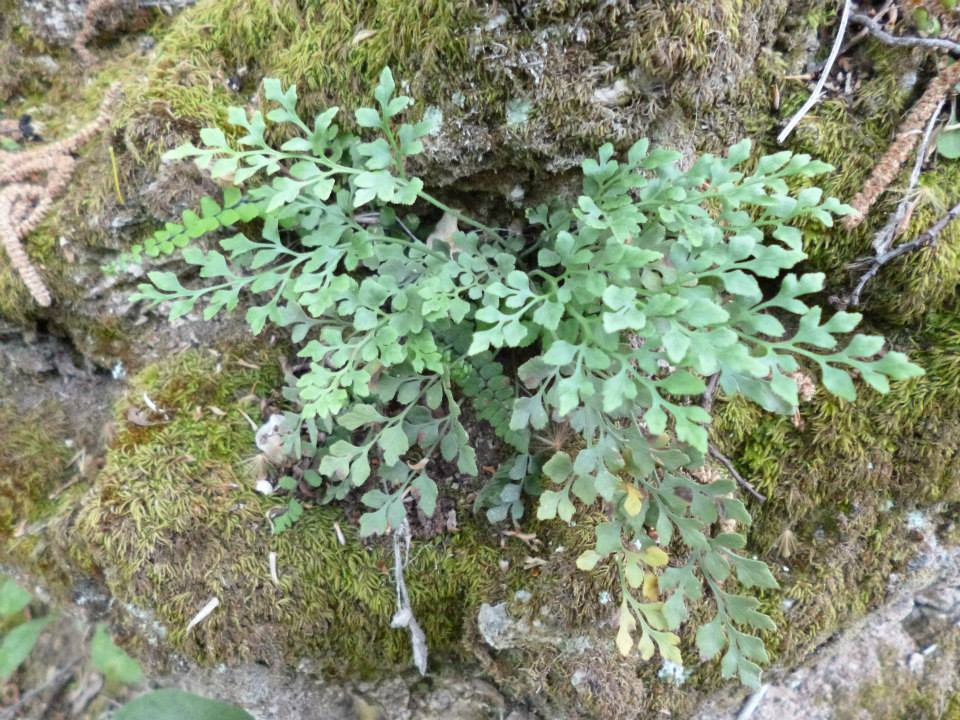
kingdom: Plantae
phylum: Tracheophyta
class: Polypodiopsida
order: Polypodiales
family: Aspleniaceae
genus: Asplenium
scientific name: Asplenium ruta-muraria
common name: Wall-rue
